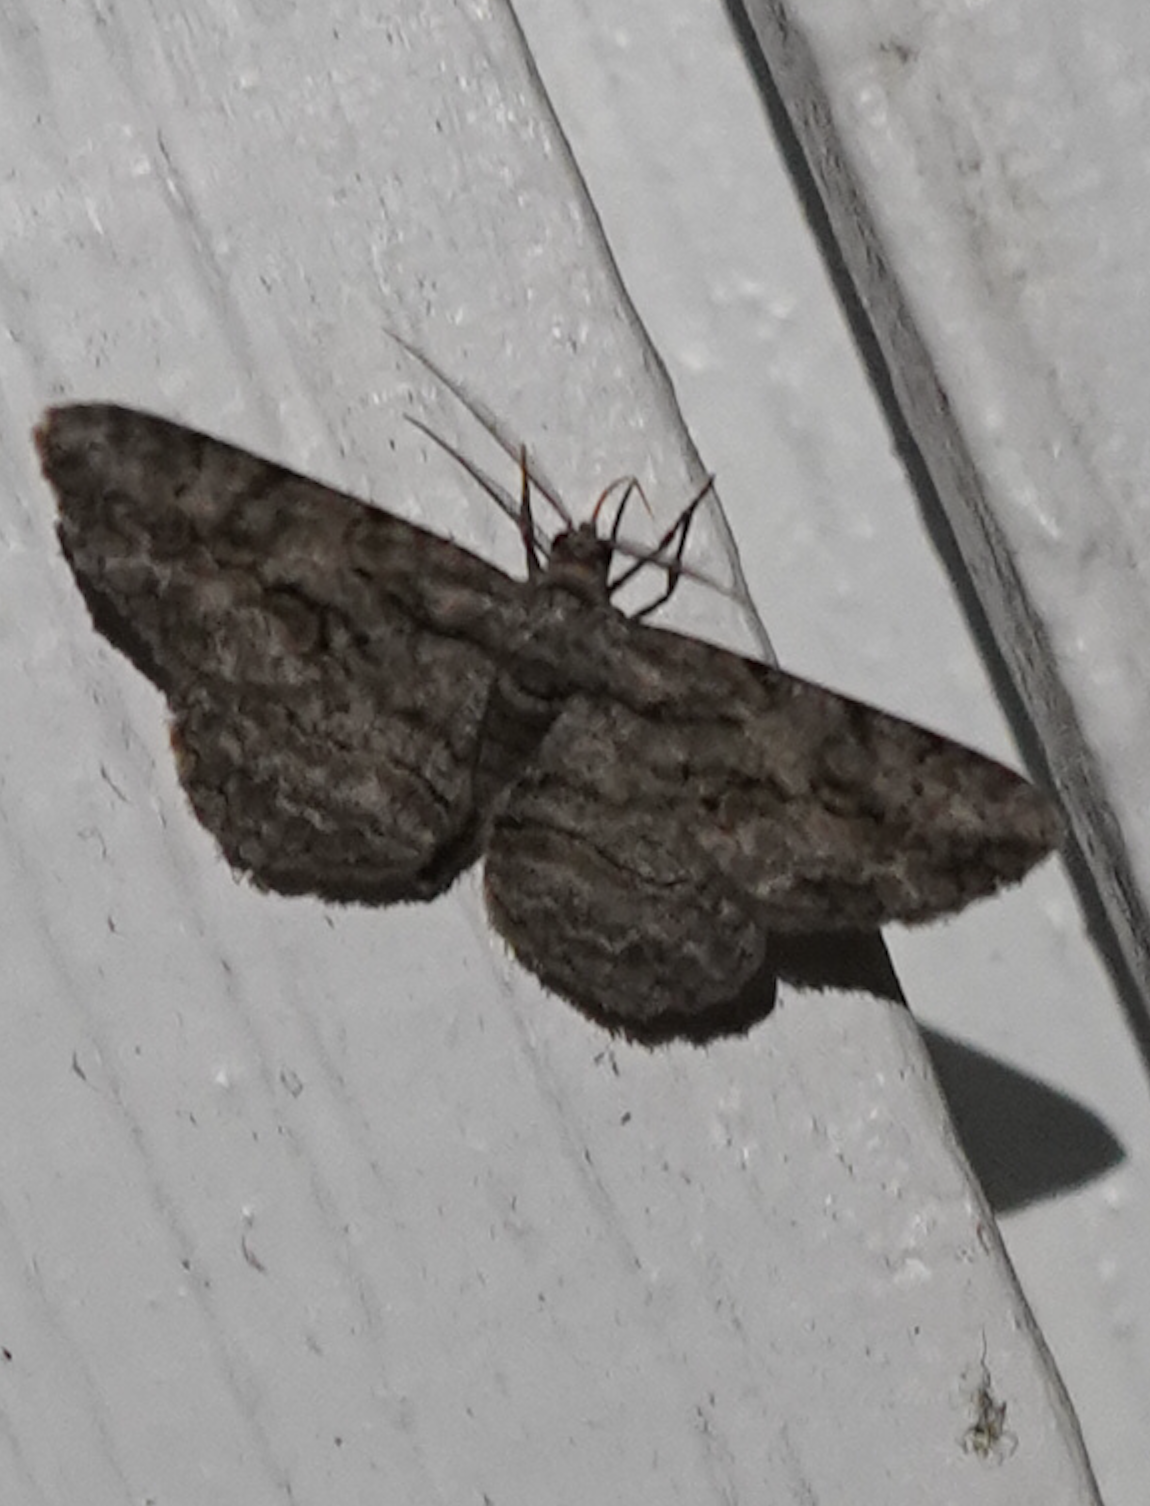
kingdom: Animalia
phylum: Arthropoda
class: Insecta
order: Lepidoptera
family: Geometridae
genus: Anavitrinella
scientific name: Anavitrinella pampinaria
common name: Common gray
